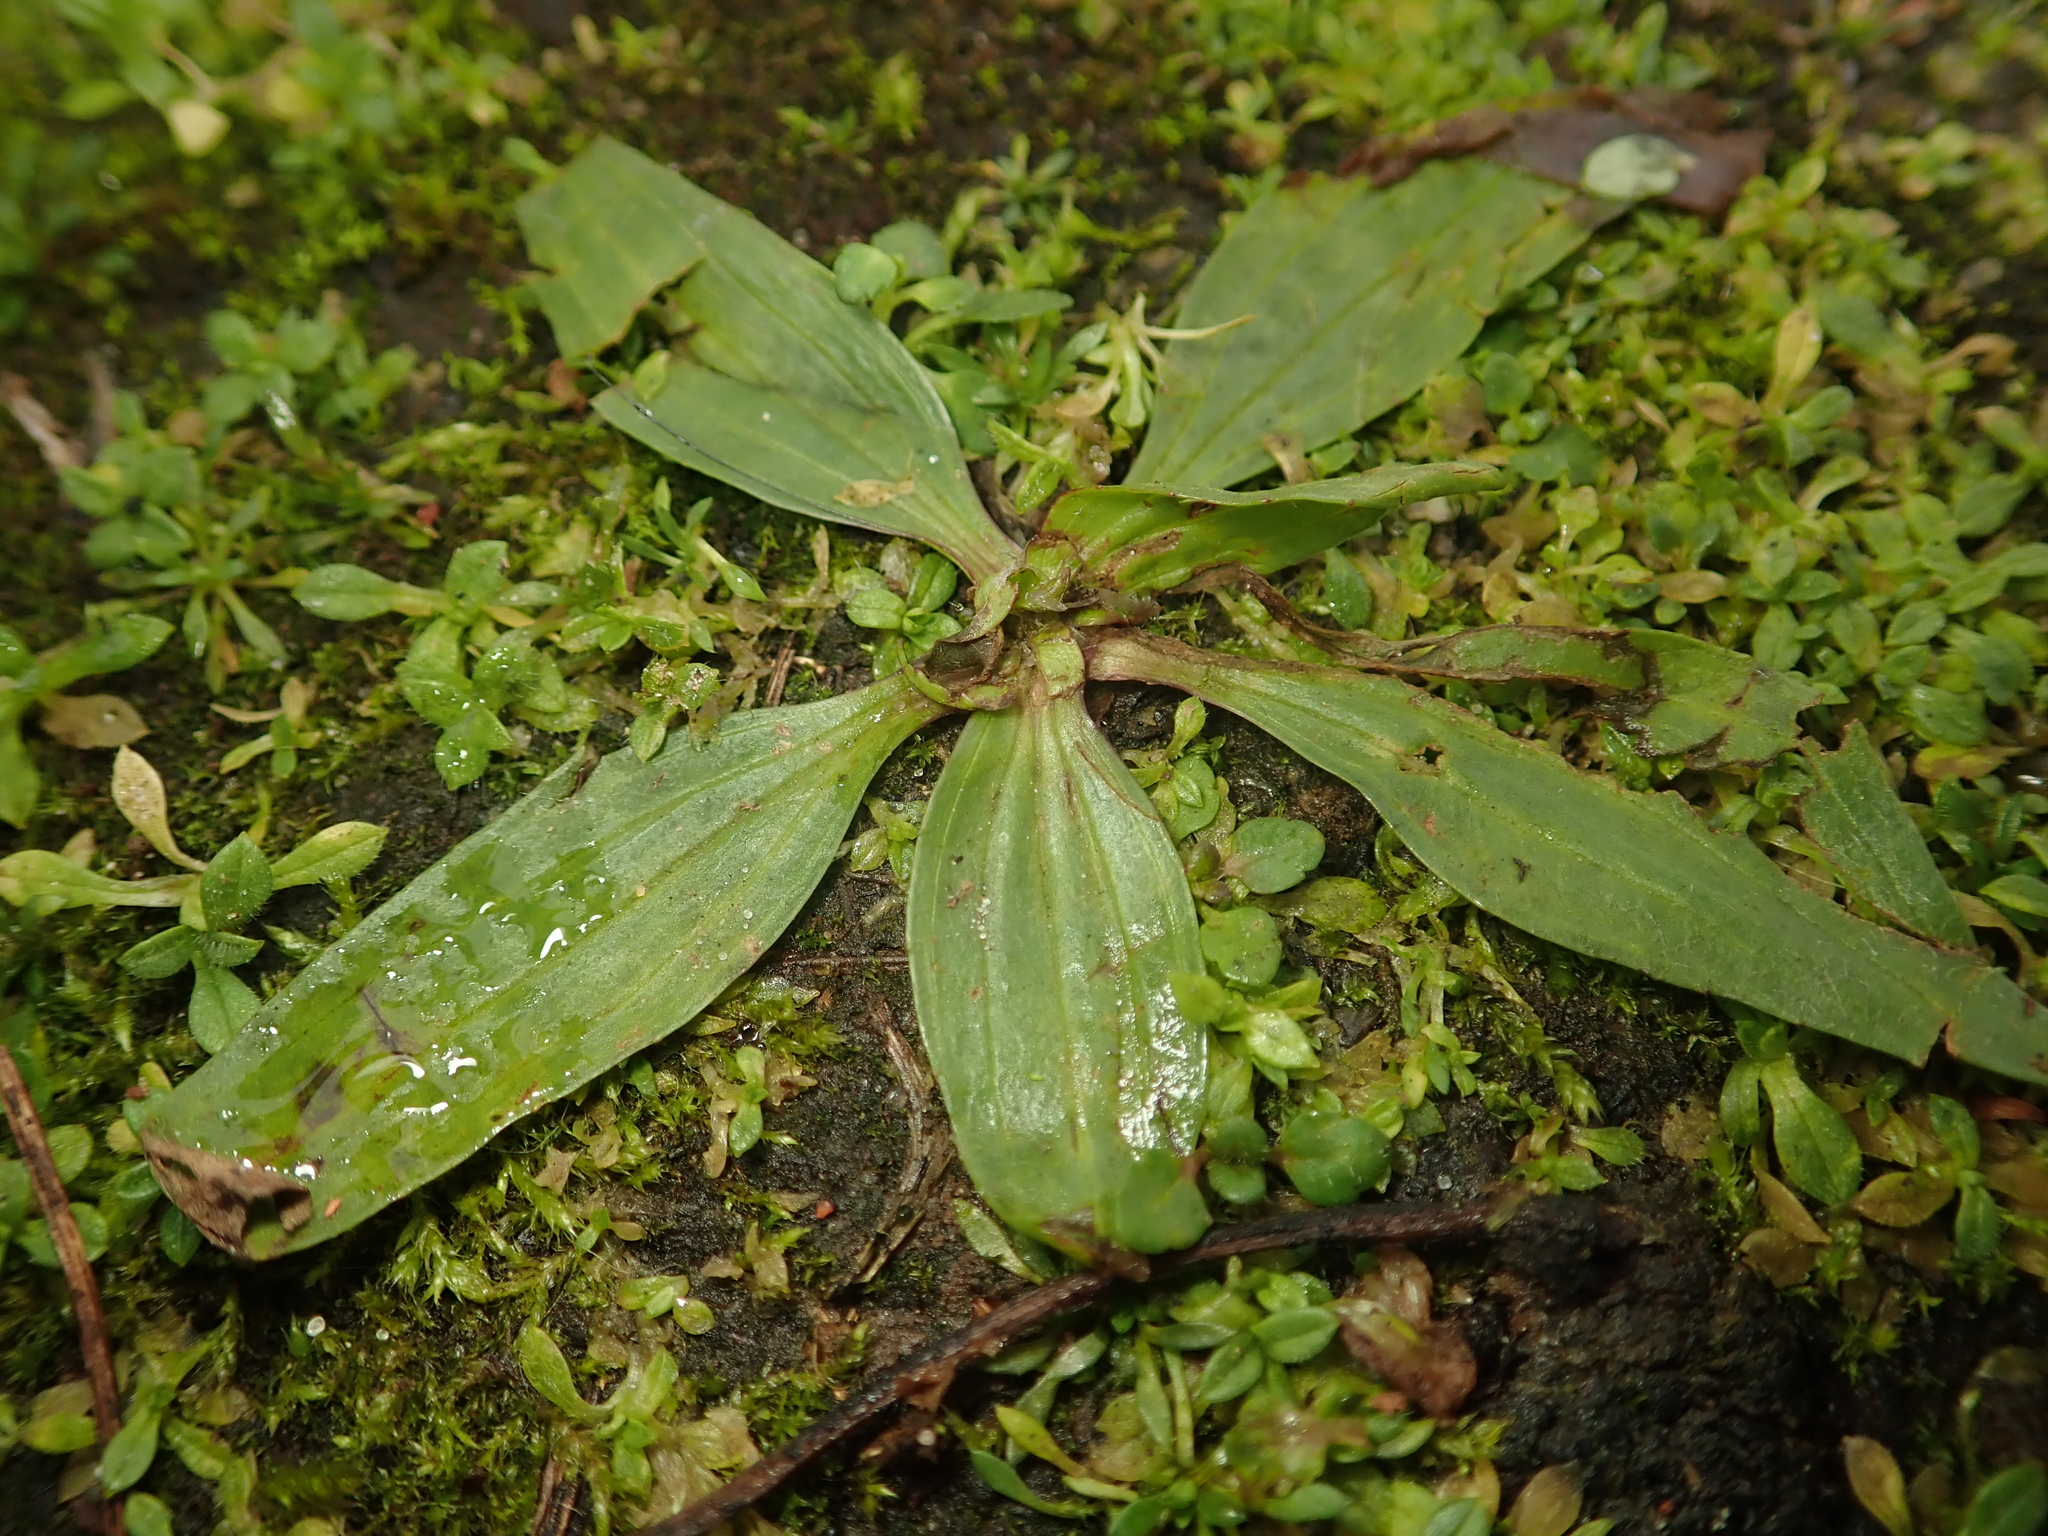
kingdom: Plantae
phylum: Tracheophyta
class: Magnoliopsida
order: Lamiales
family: Plantaginaceae
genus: Plantago
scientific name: Plantago lanceolata
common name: Ribwort plantain
